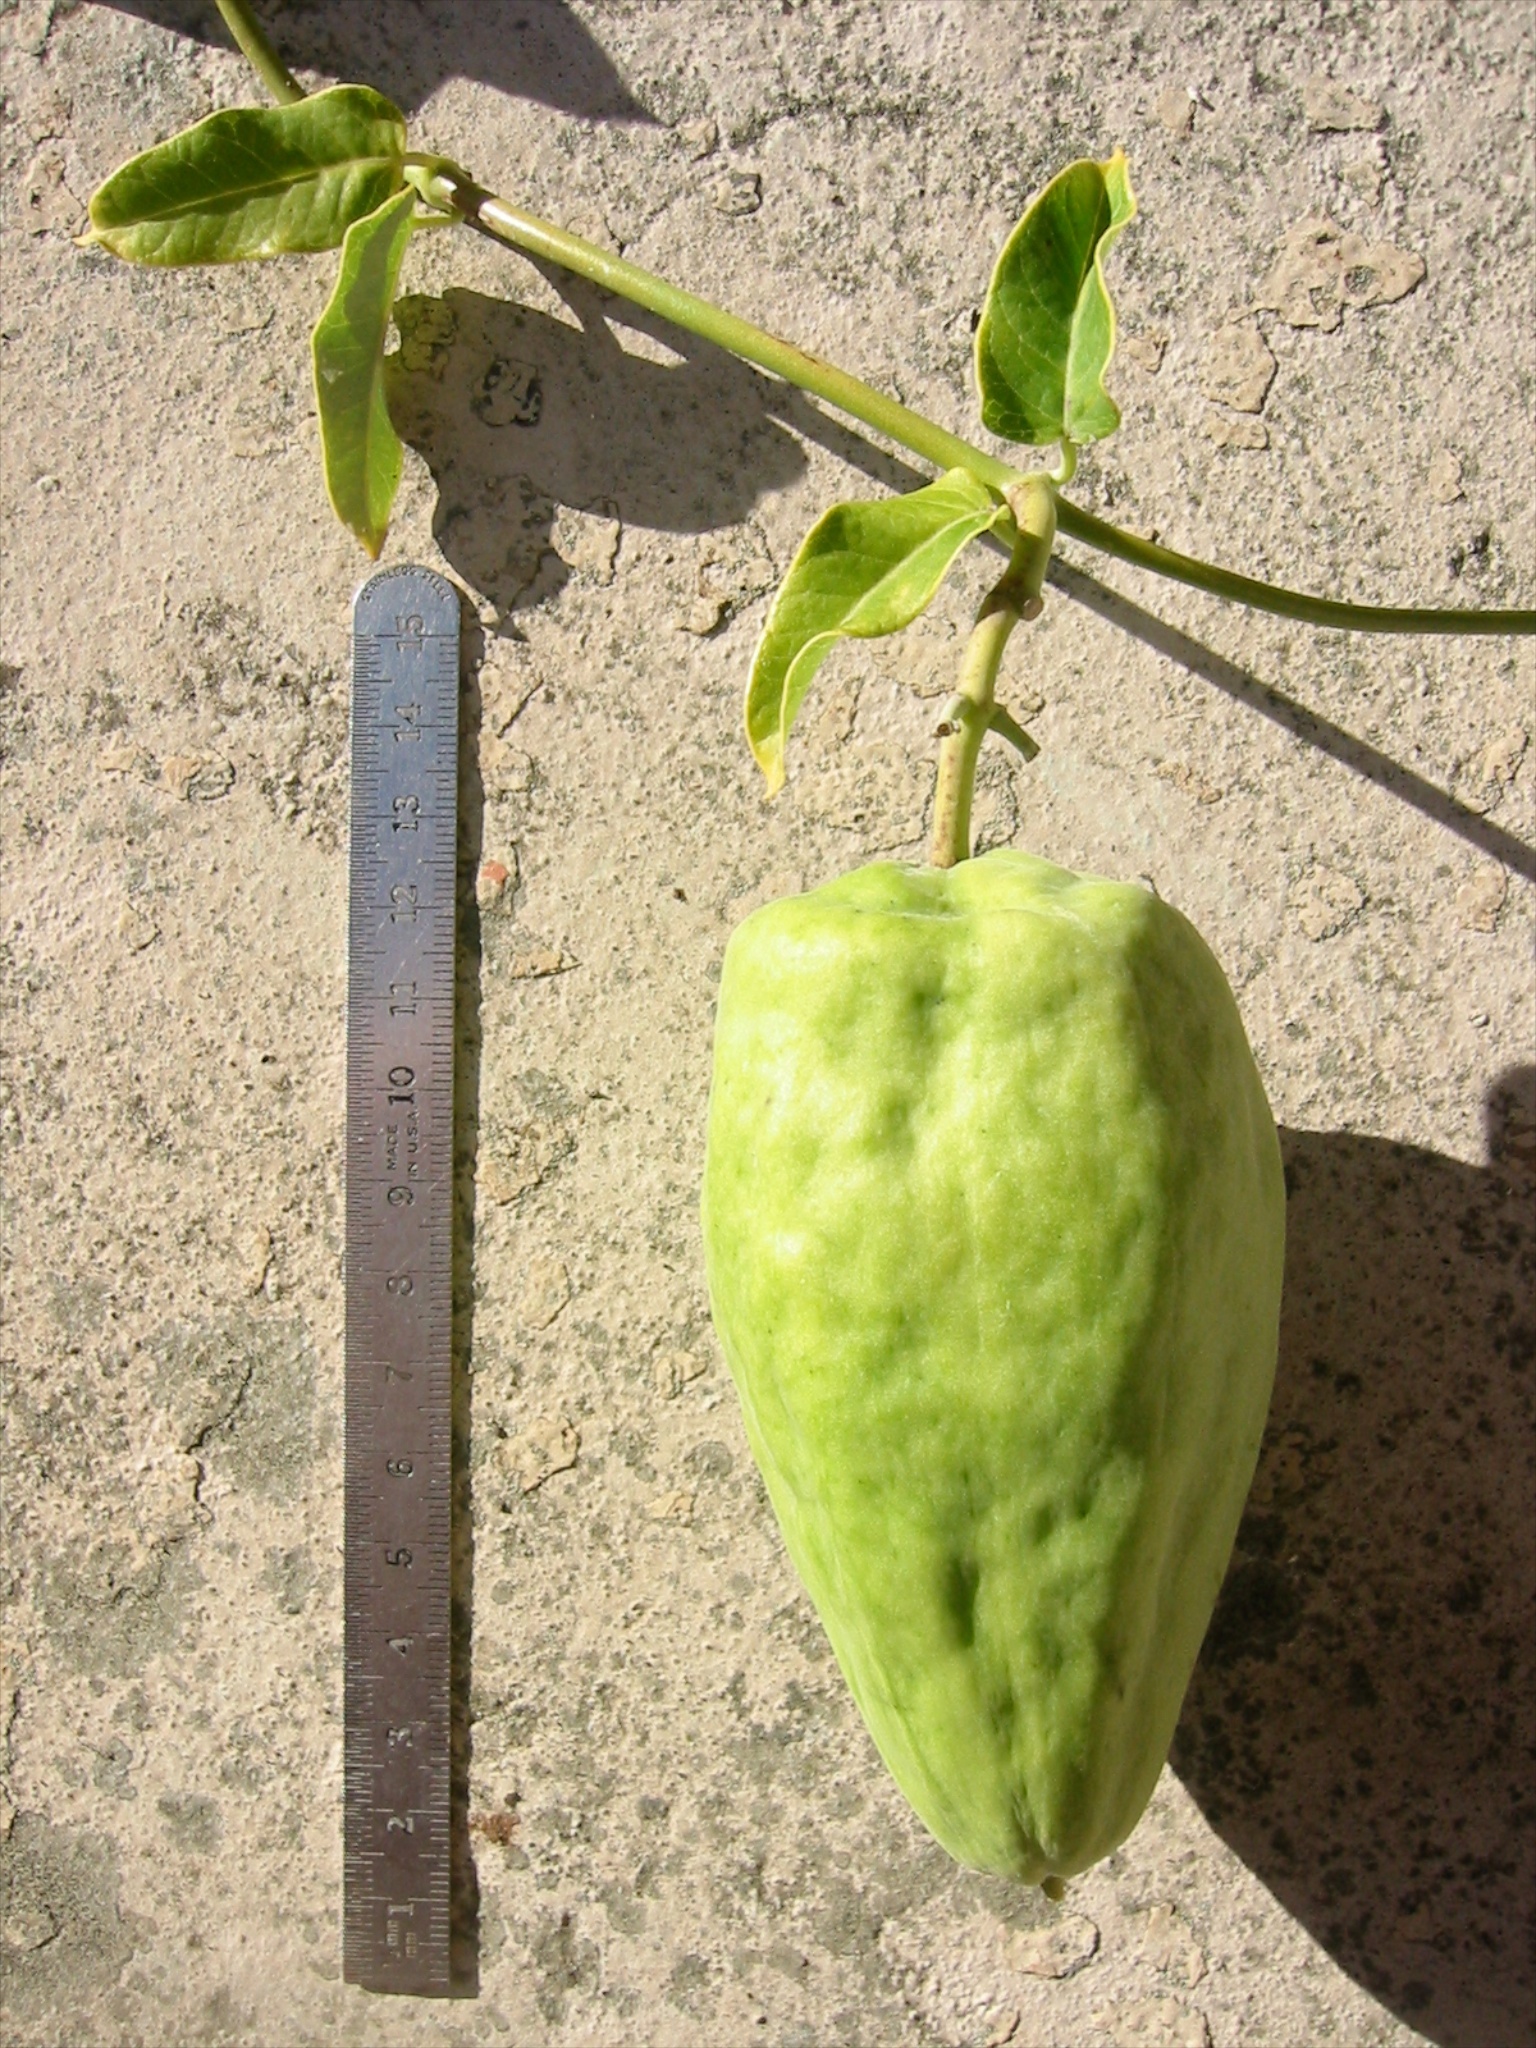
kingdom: Plantae
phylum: Tracheophyta
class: Magnoliopsida
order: Gentianales
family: Apocynaceae
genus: Araujia
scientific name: Araujia sericifera
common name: White bladderflower
